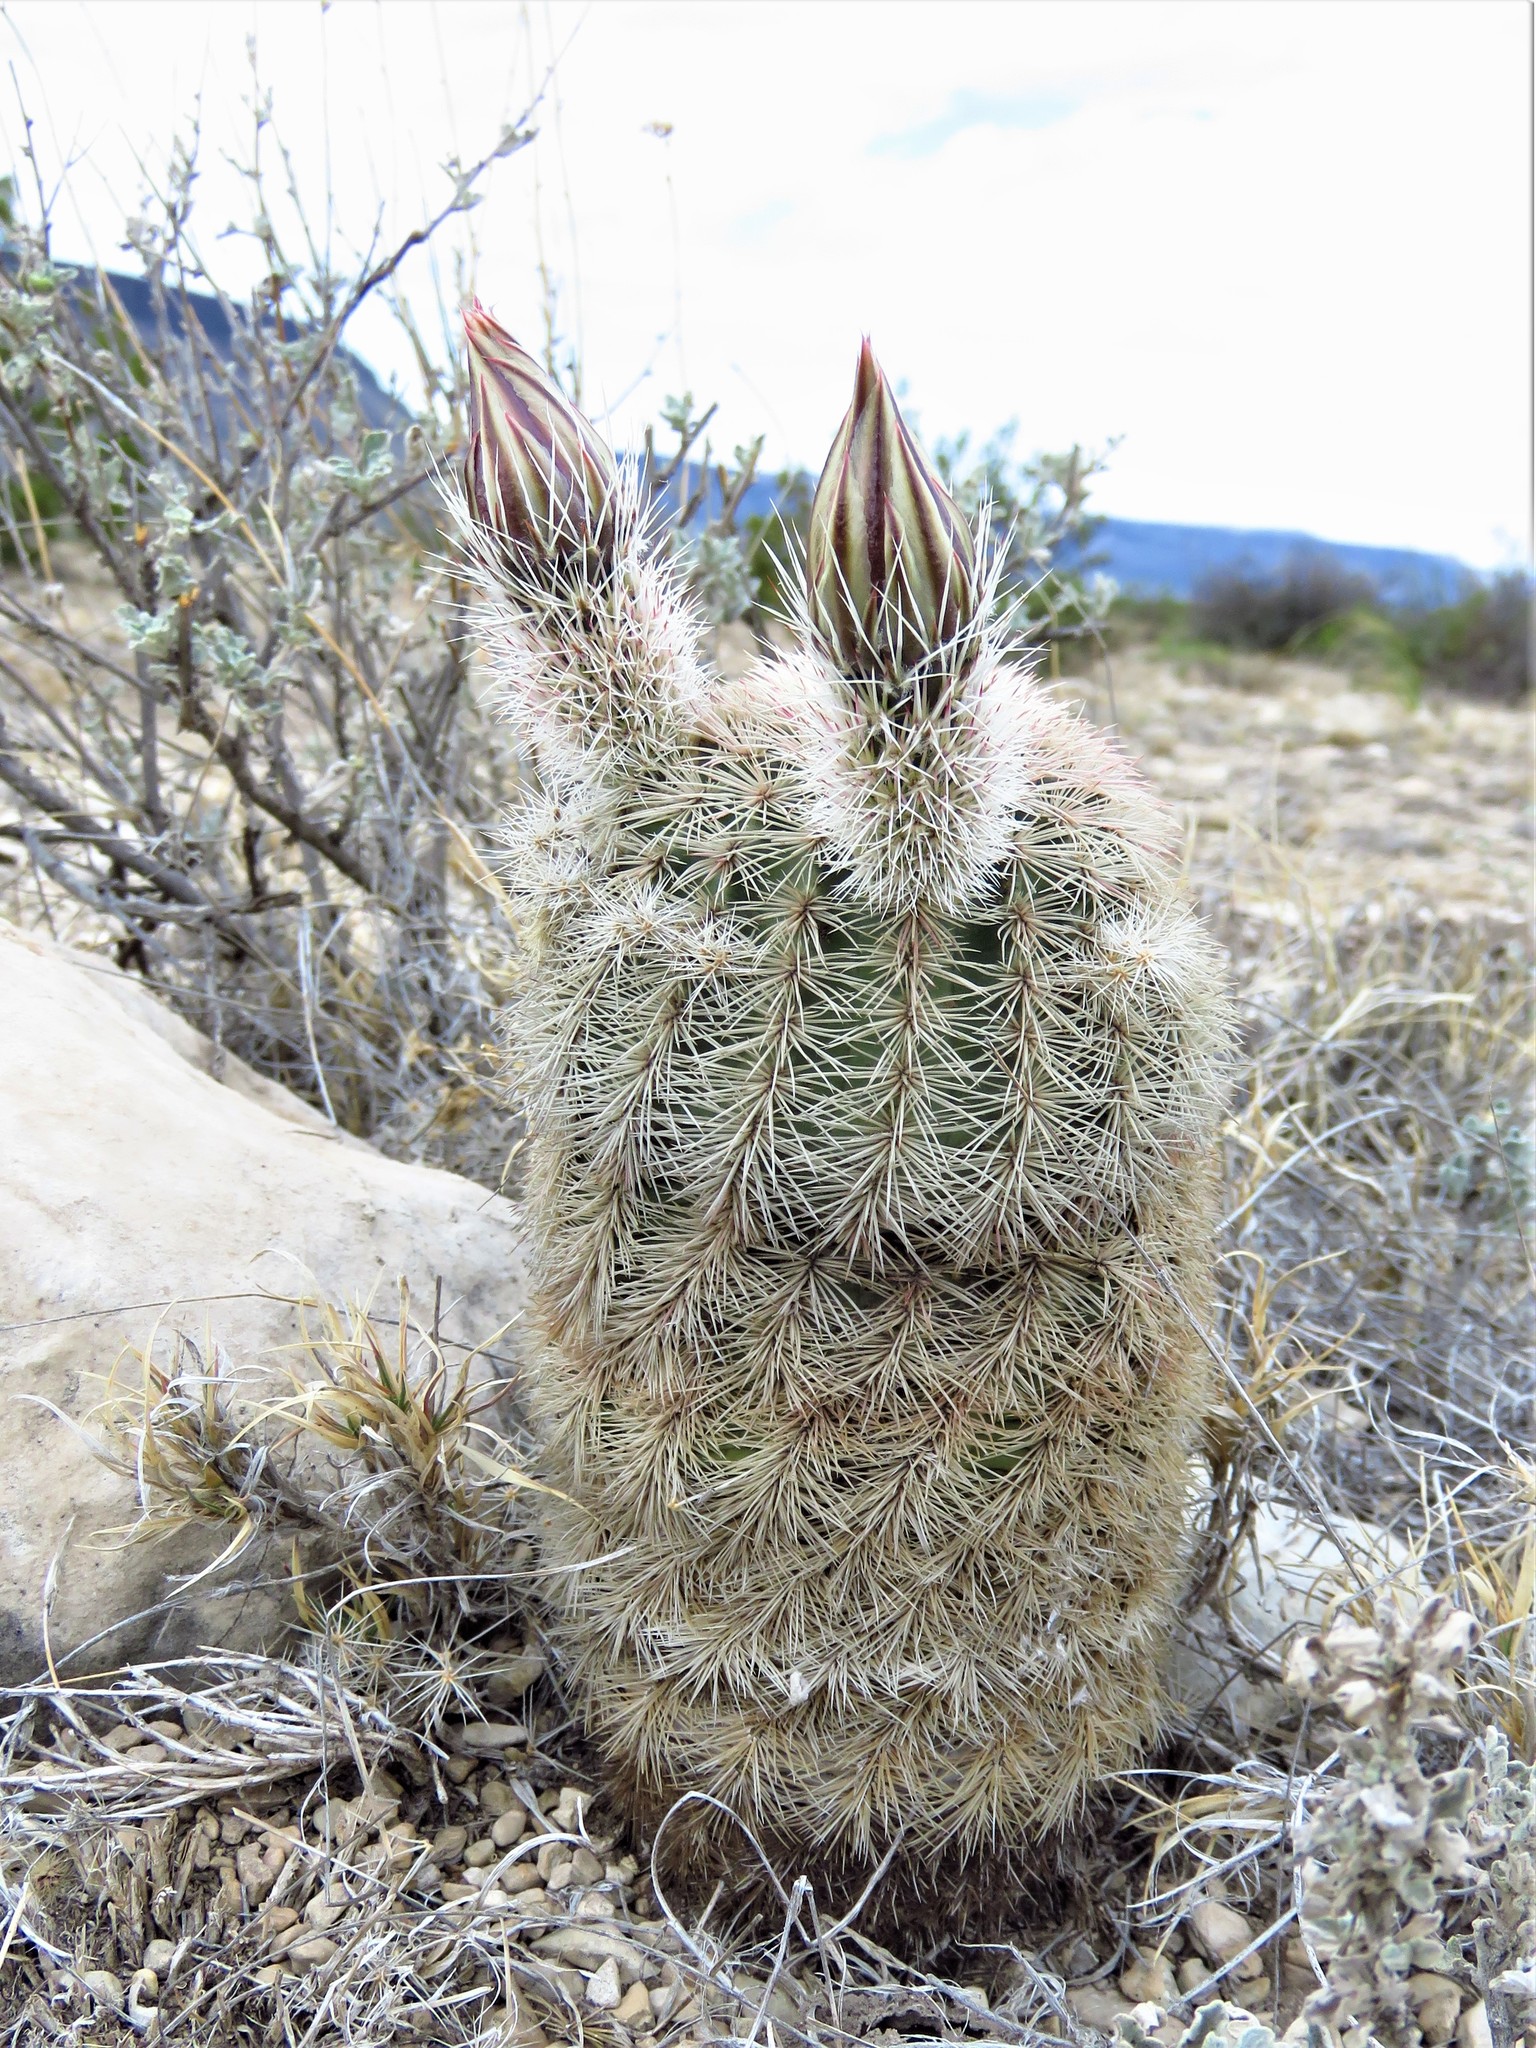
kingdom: Plantae
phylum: Tracheophyta
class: Magnoliopsida
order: Caryophyllales
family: Cactaceae
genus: Echinocereus
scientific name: Echinocereus dasyacanthus
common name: Spiny hedgehog cactus
